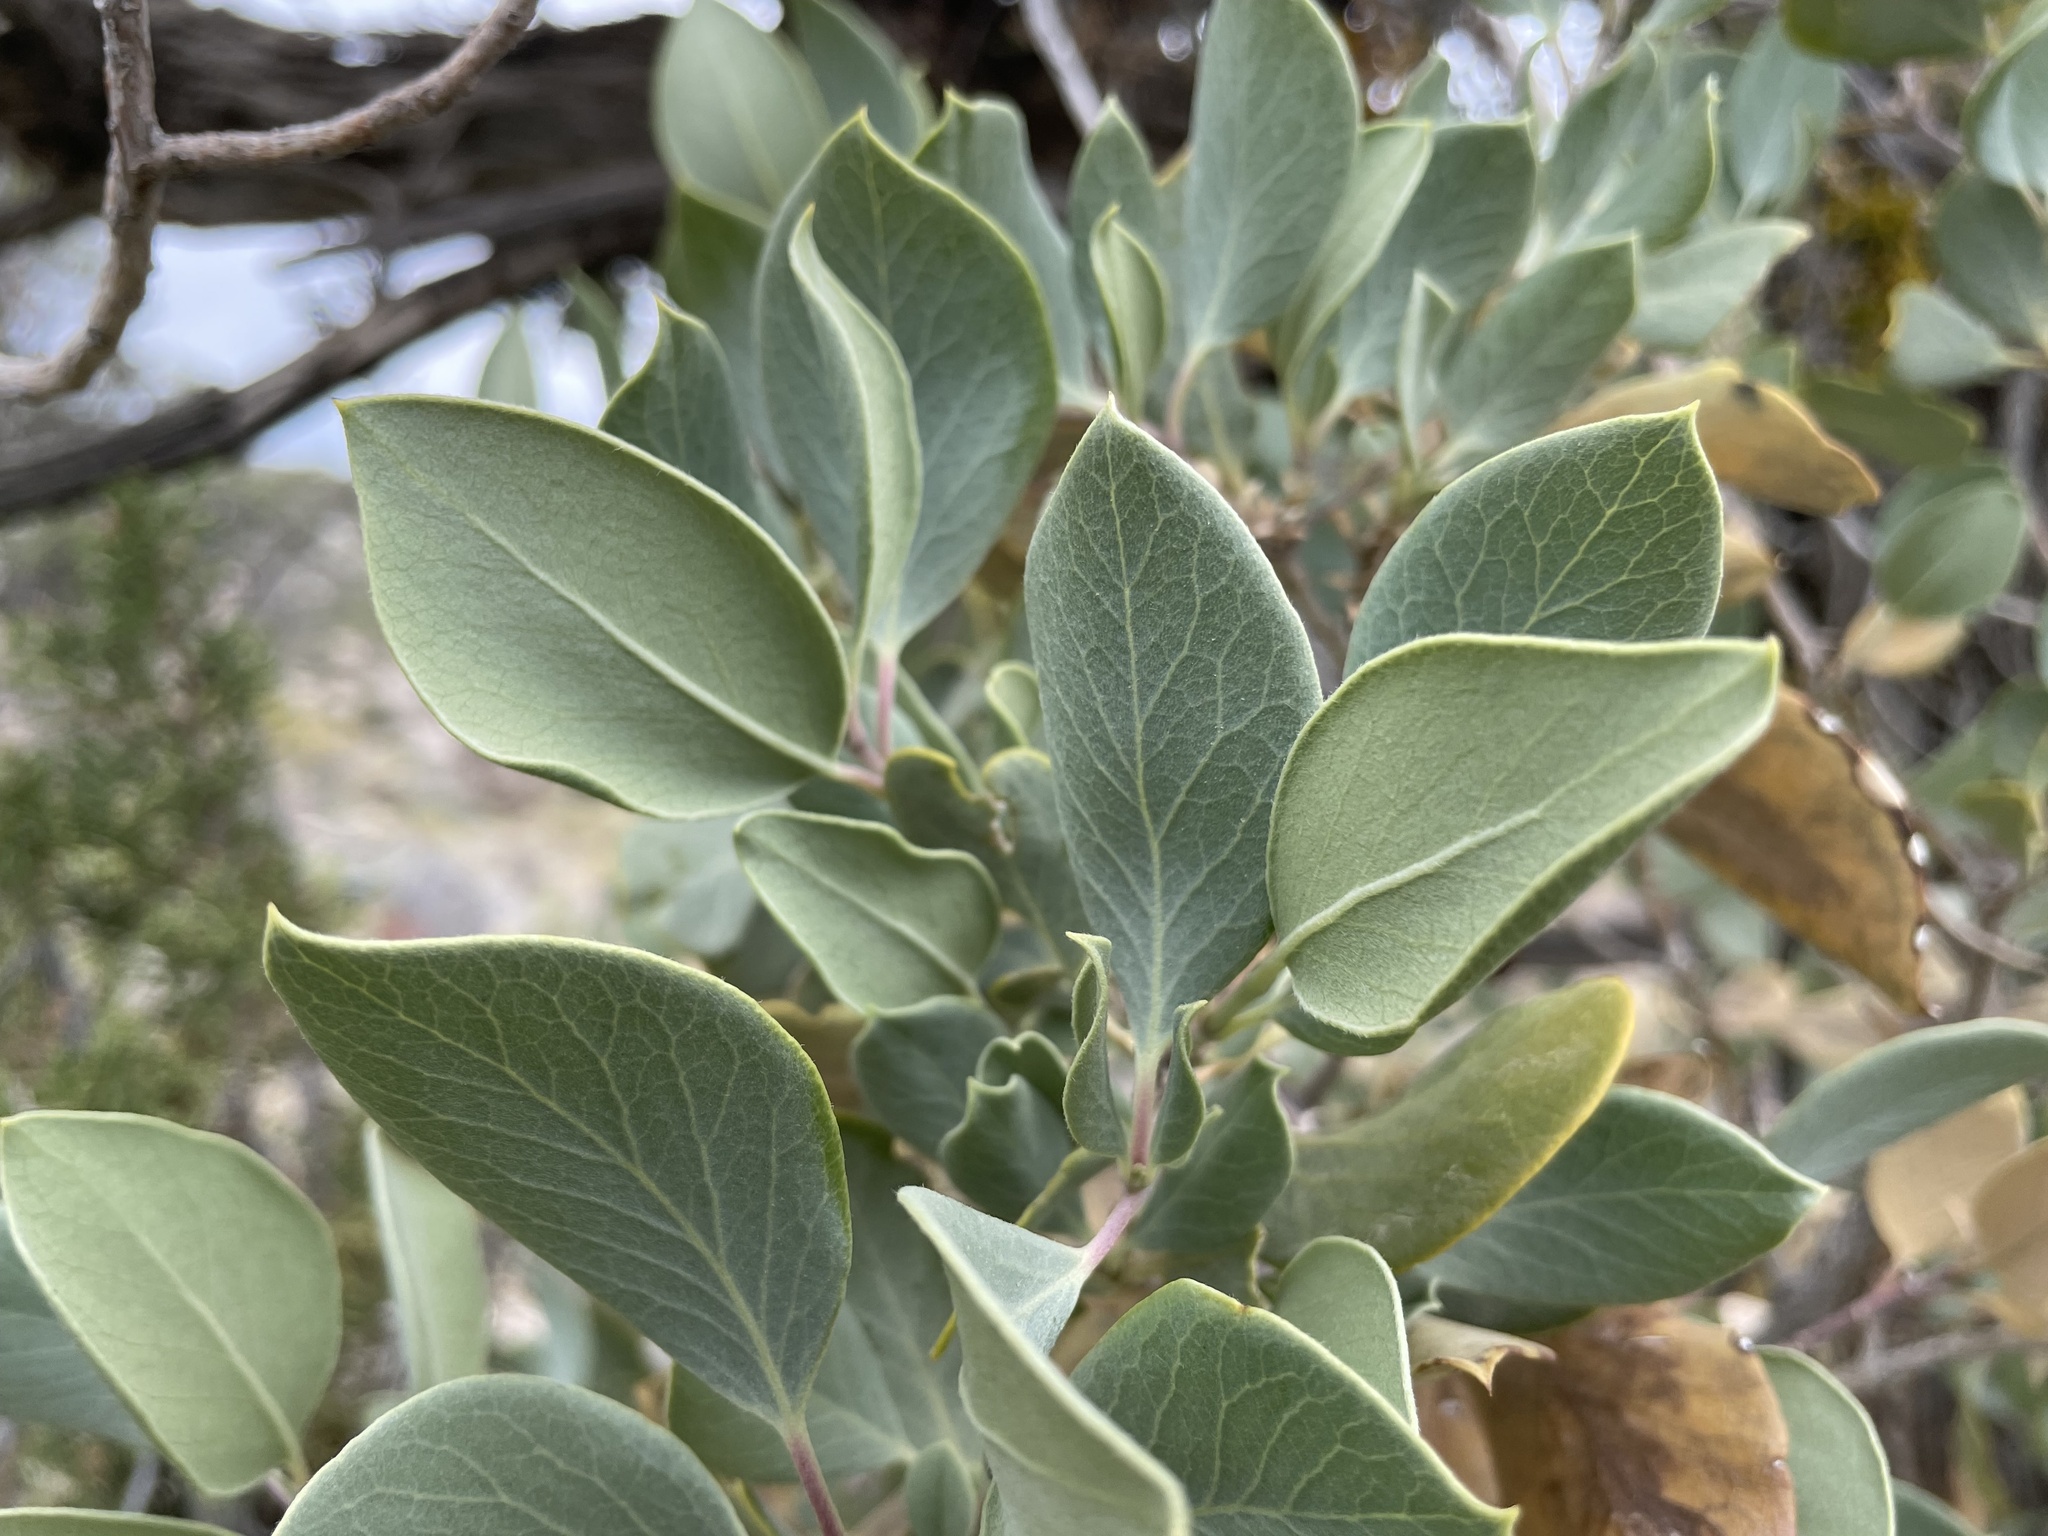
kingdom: Plantae
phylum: Tracheophyta
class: Magnoliopsida
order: Garryales
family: Garryaceae
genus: Garrya
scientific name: Garrya flavescens
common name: Ashy silk-tassel
